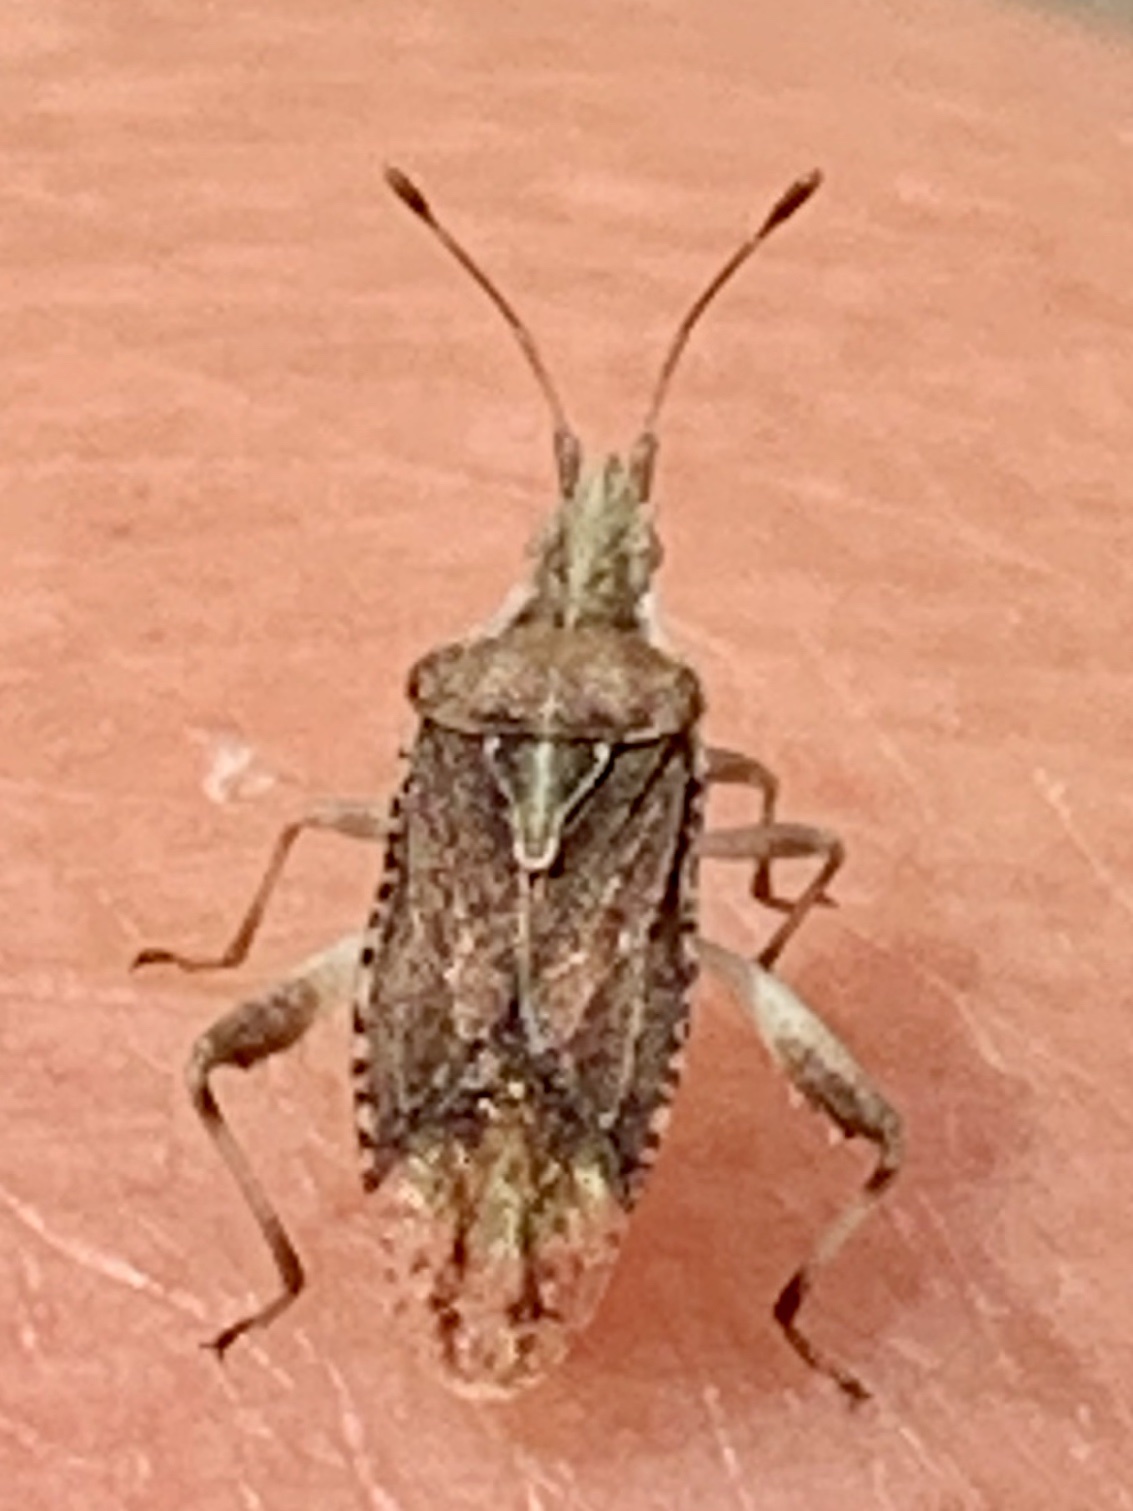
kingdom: Animalia
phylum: Arthropoda
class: Insecta
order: Hemiptera
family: Rhopalidae
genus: Harmostes
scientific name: Harmostes fraterculus
